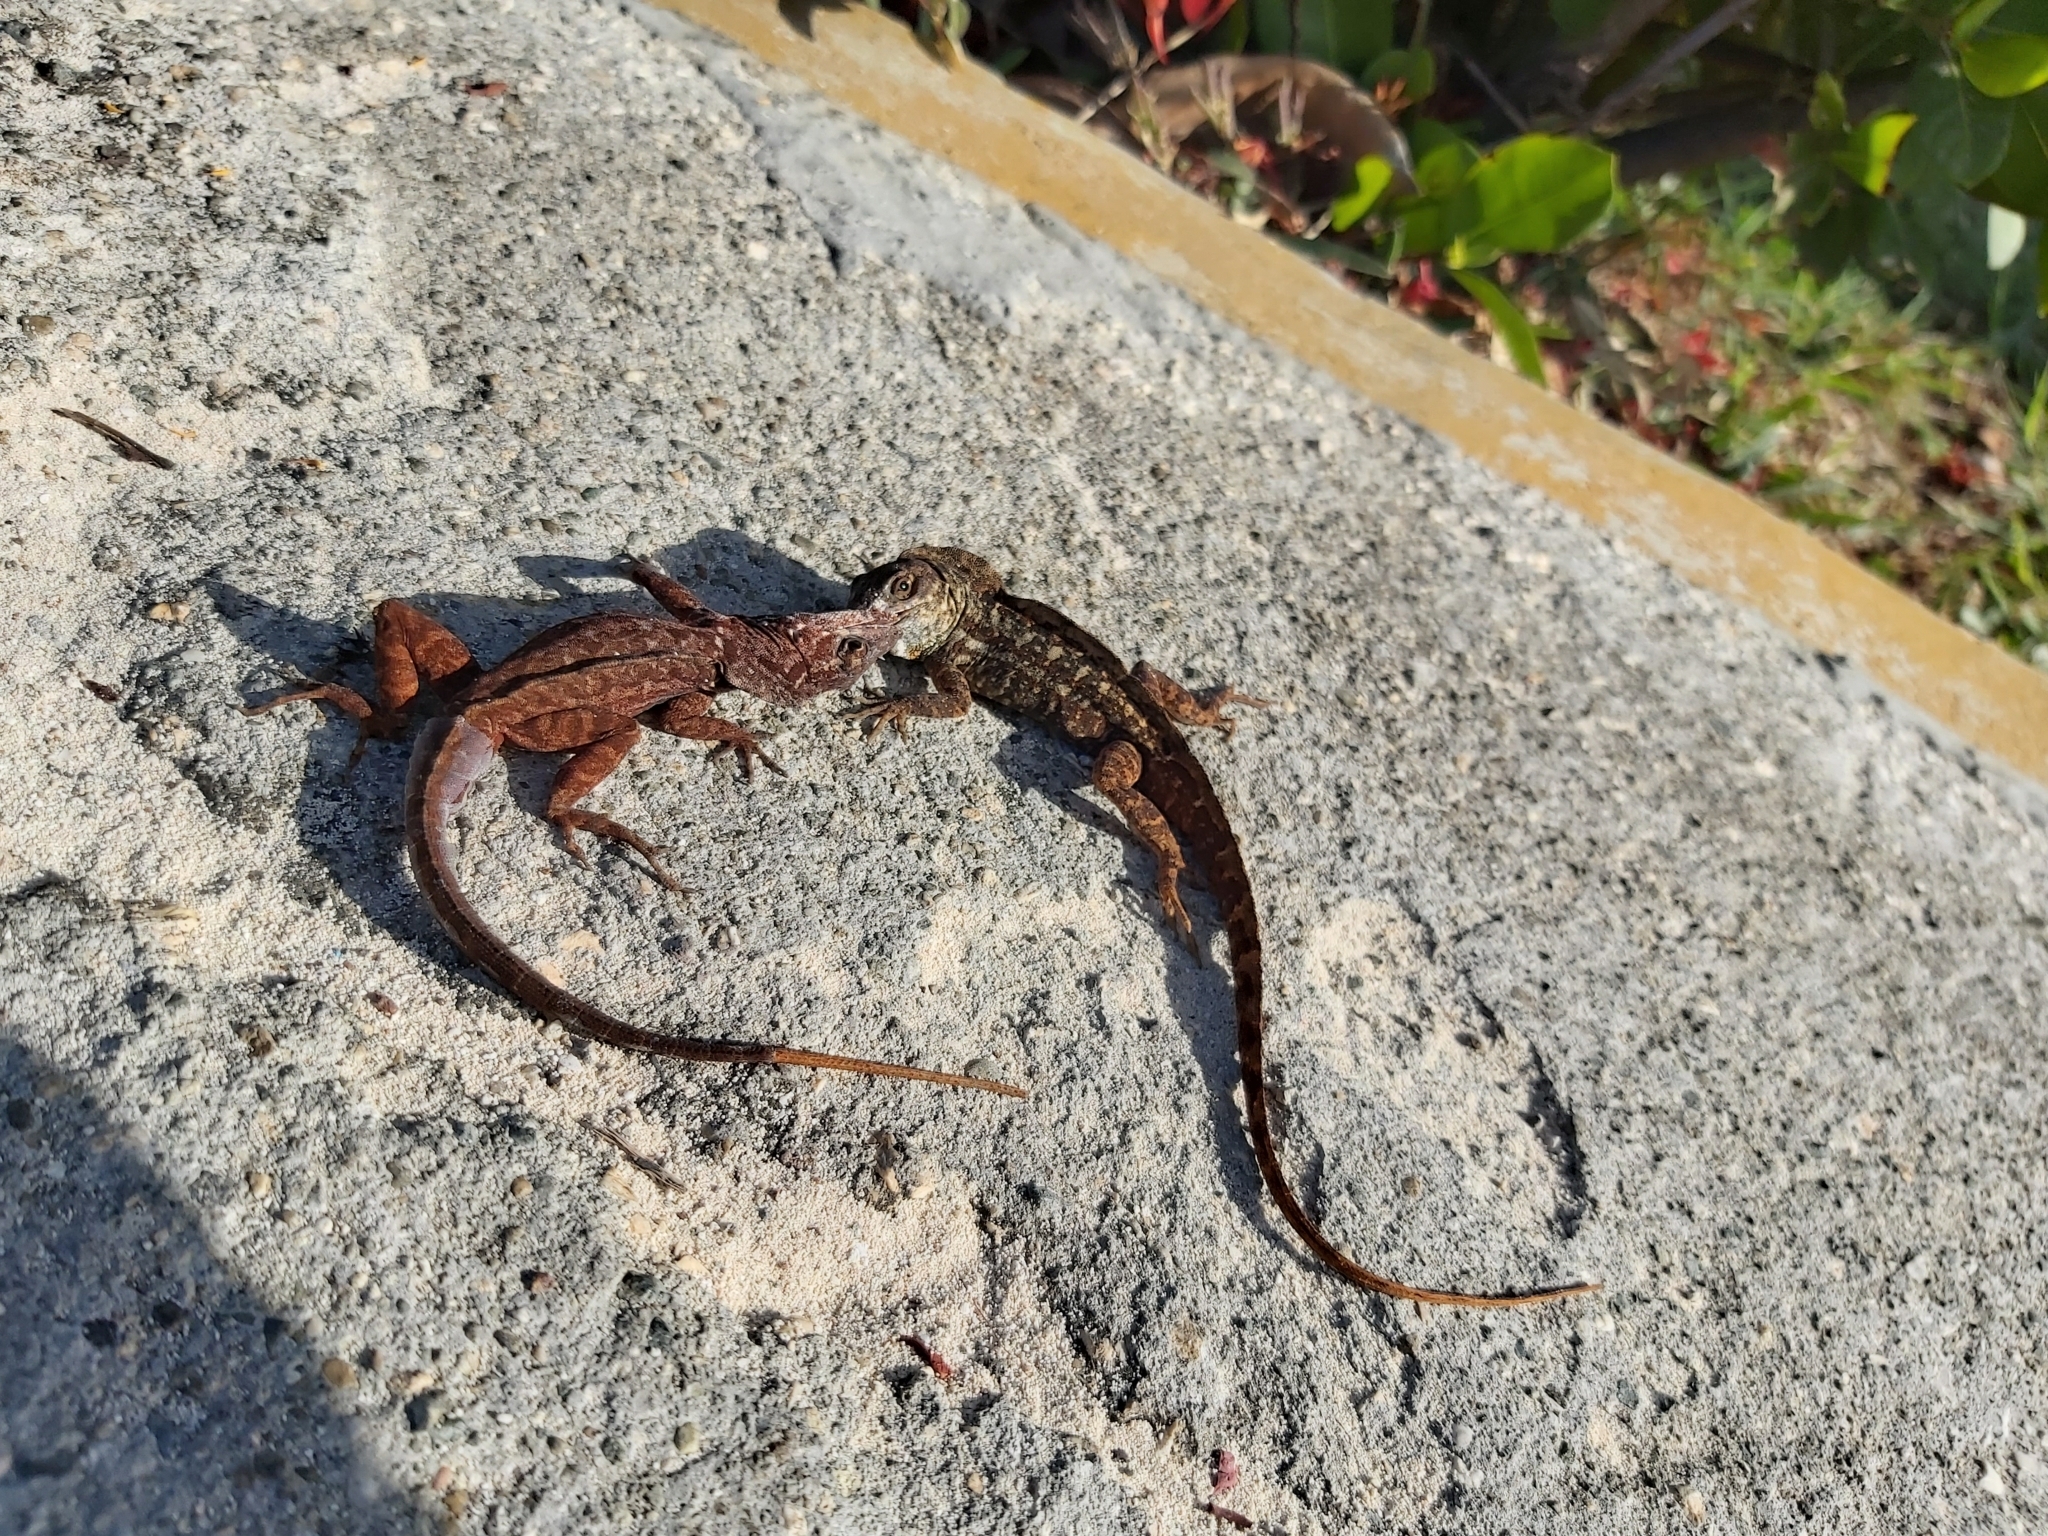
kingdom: Animalia
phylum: Chordata
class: Squamata
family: Dactyloidae
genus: Anolis
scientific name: Anolis sagrei
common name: Brown anole
